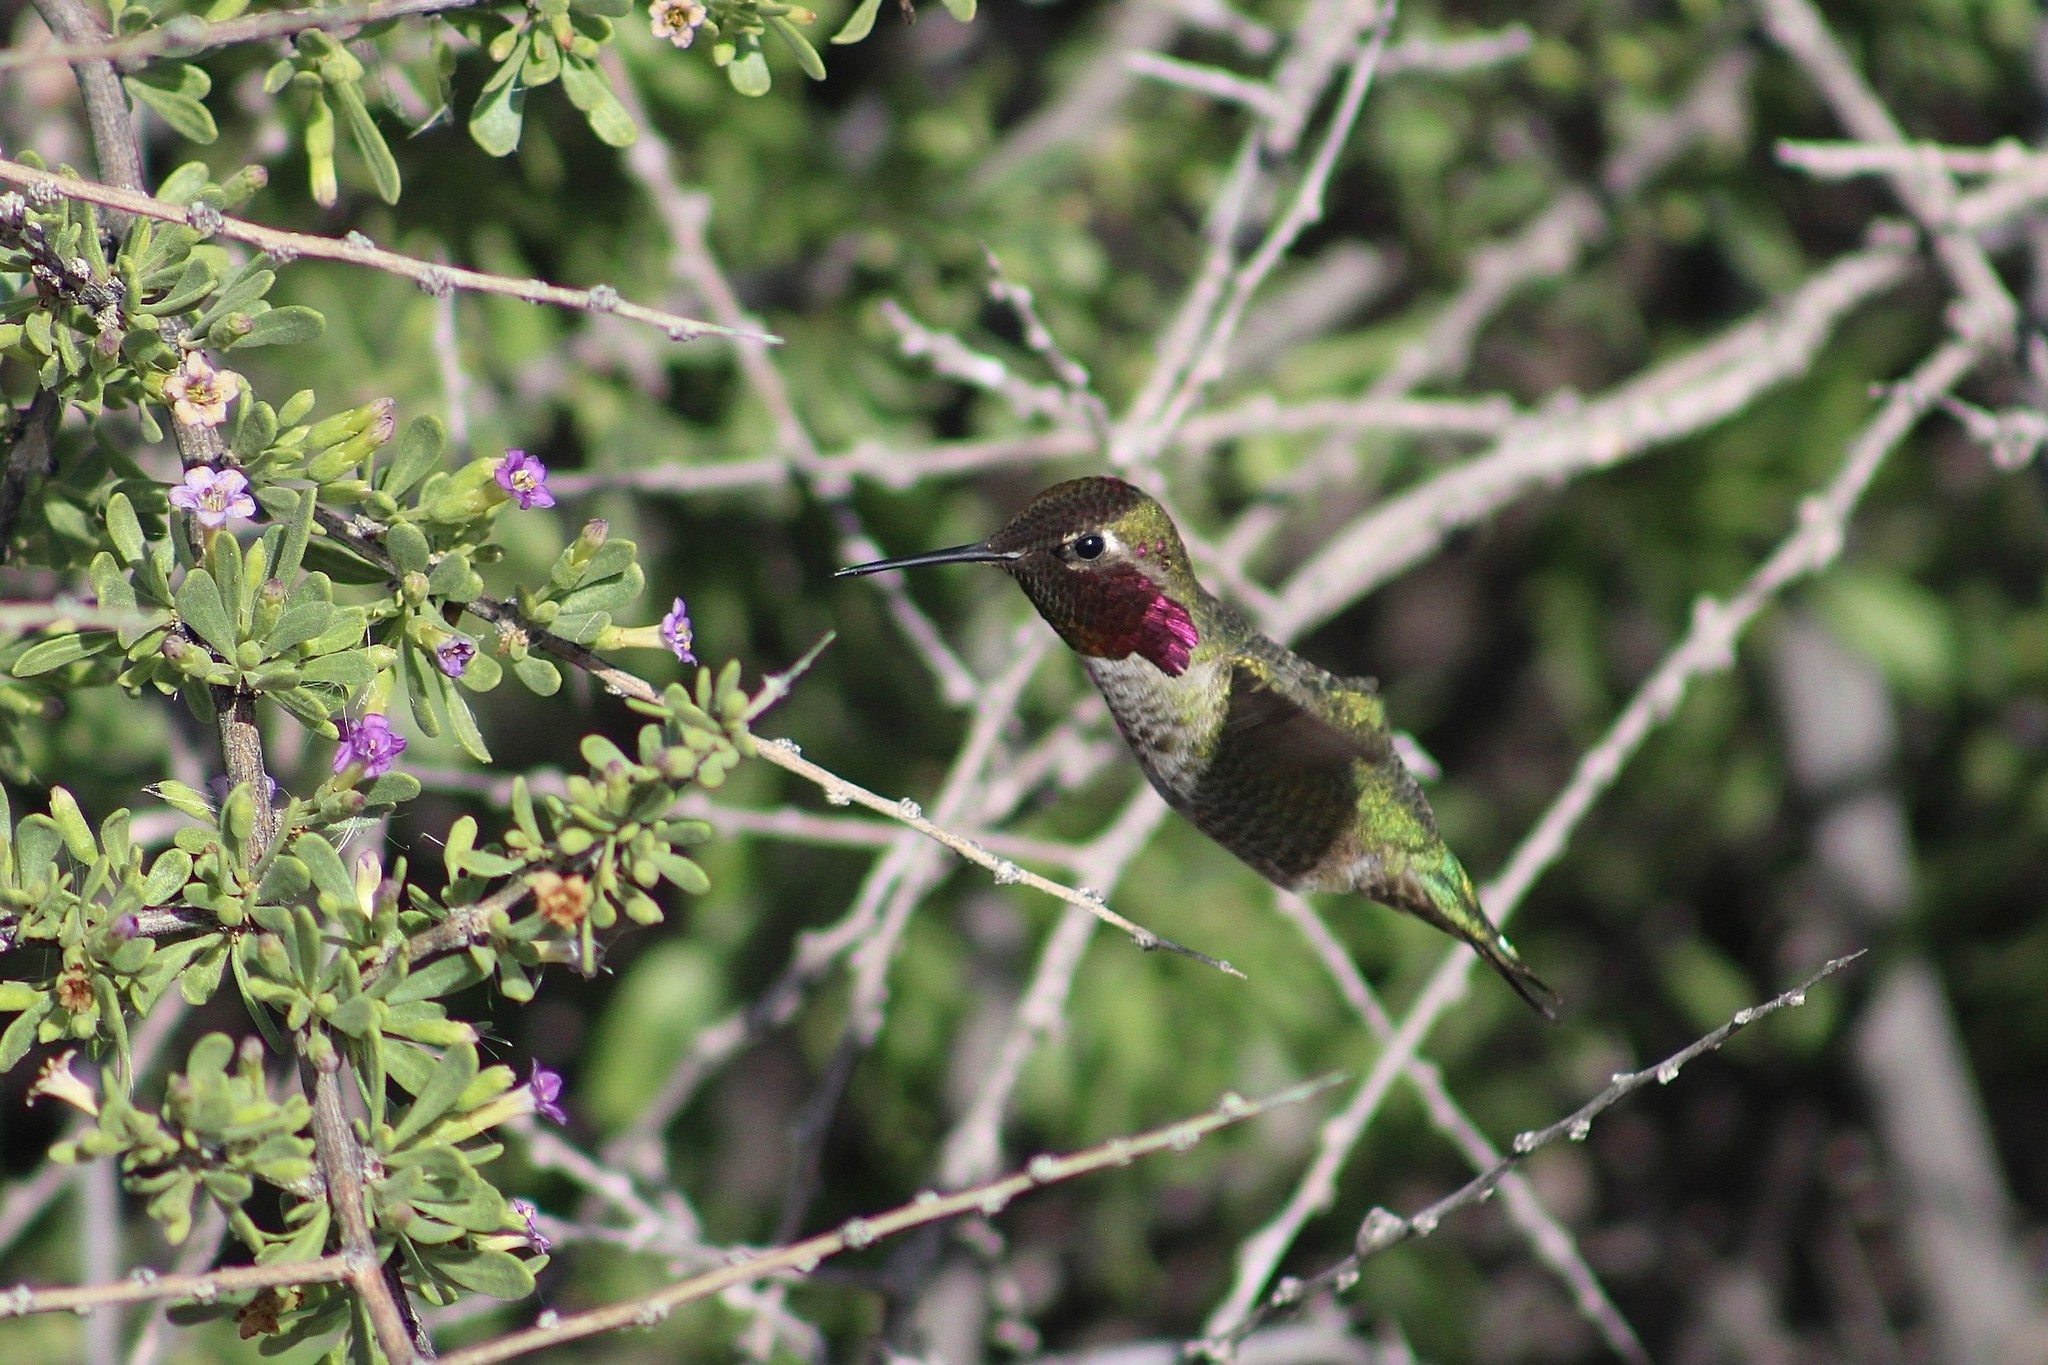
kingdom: Animalia
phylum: Chordata
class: Aves
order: Apodiformes
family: Trochilidae
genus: Calypte
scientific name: Calypte anna
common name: Anna's hummingbird
